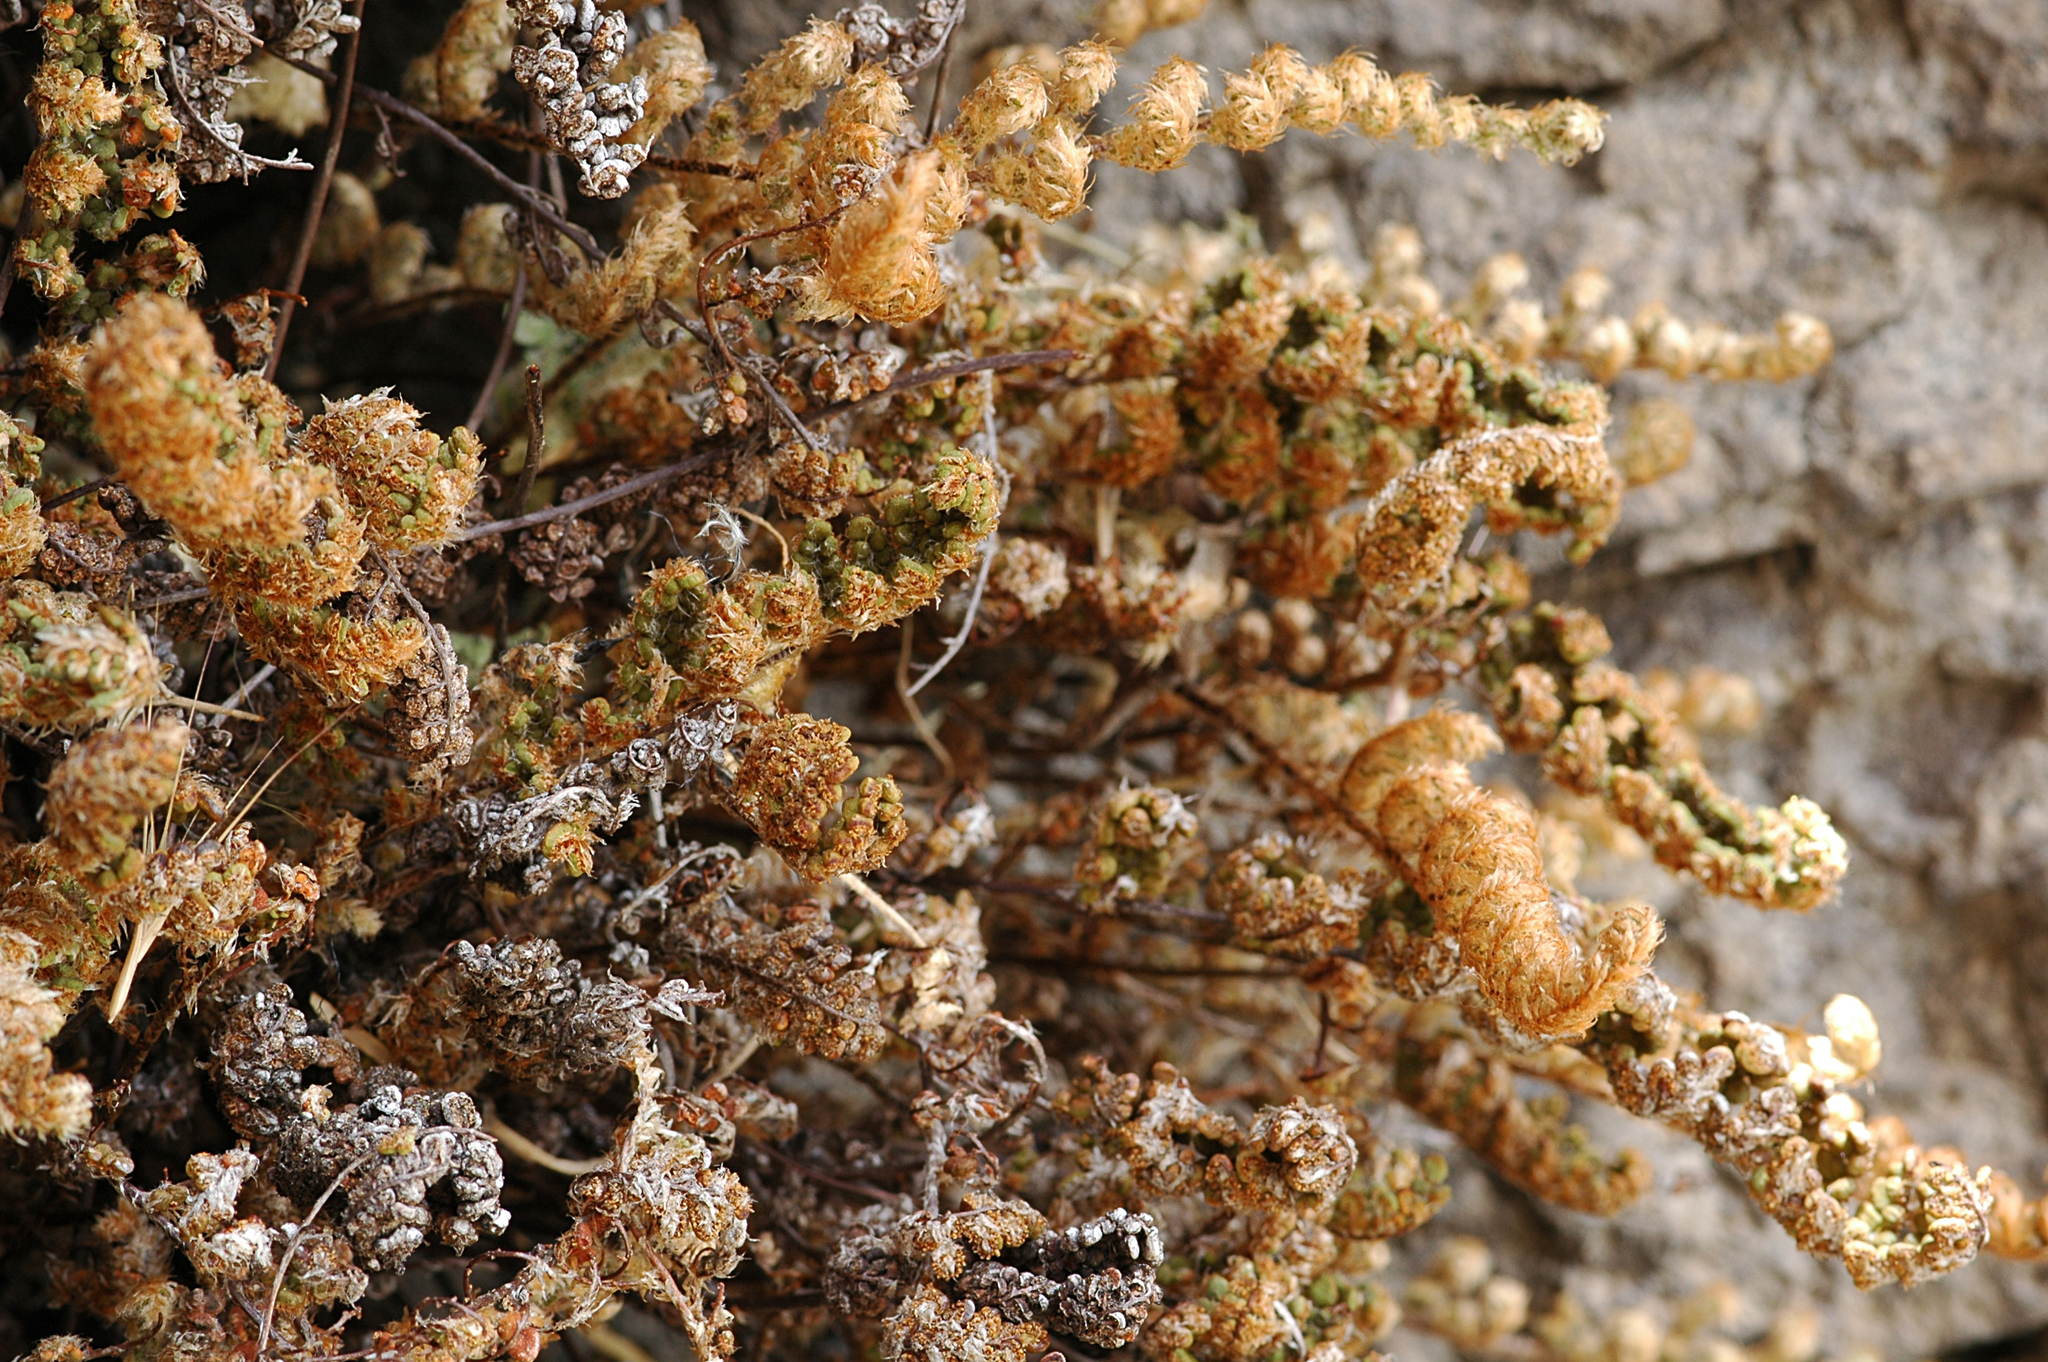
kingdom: Plantae
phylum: Tracheophyta
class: Polypodiopsida
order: Polypodiales
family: Pteridaceae
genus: Myriopteris
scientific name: Myriopteris intertexta
